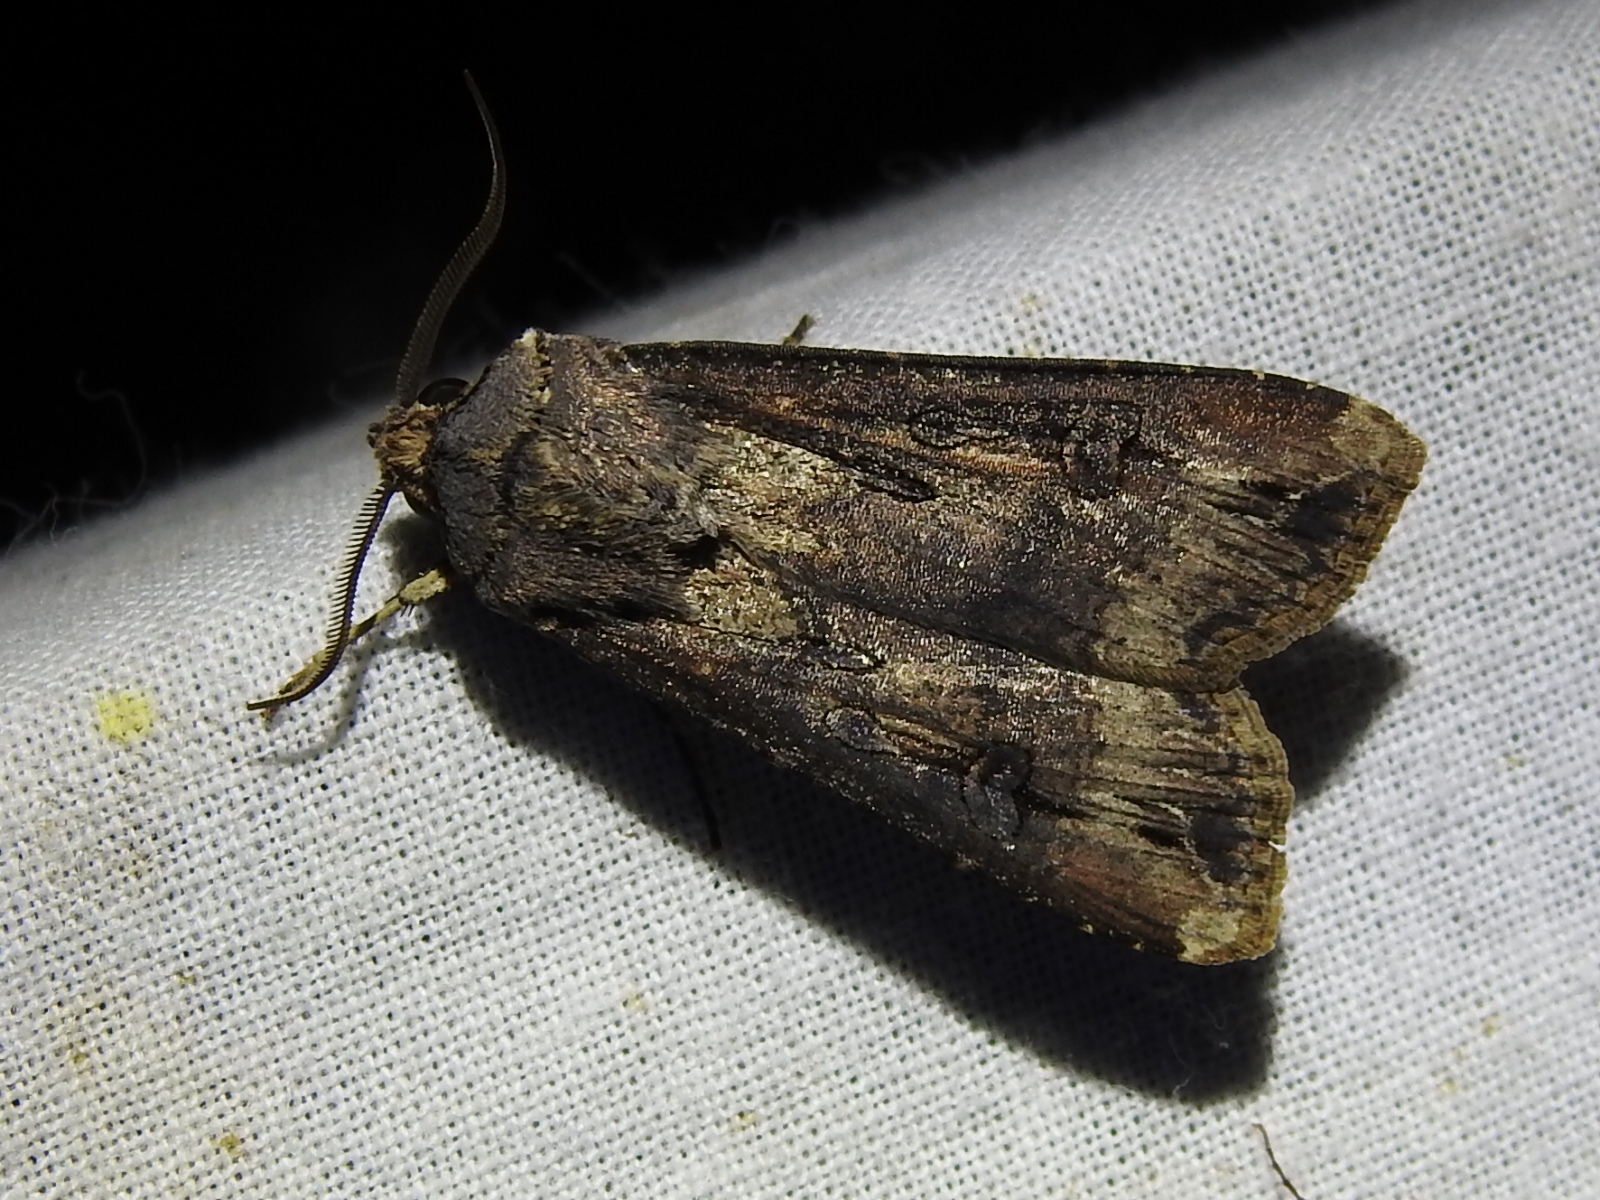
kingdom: Animalia
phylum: Arthropoda
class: Insecta
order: Lepidoptera
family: Noctuidae
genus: Agrotis
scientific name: Agrotis ipsilon
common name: Dark sword-grass
